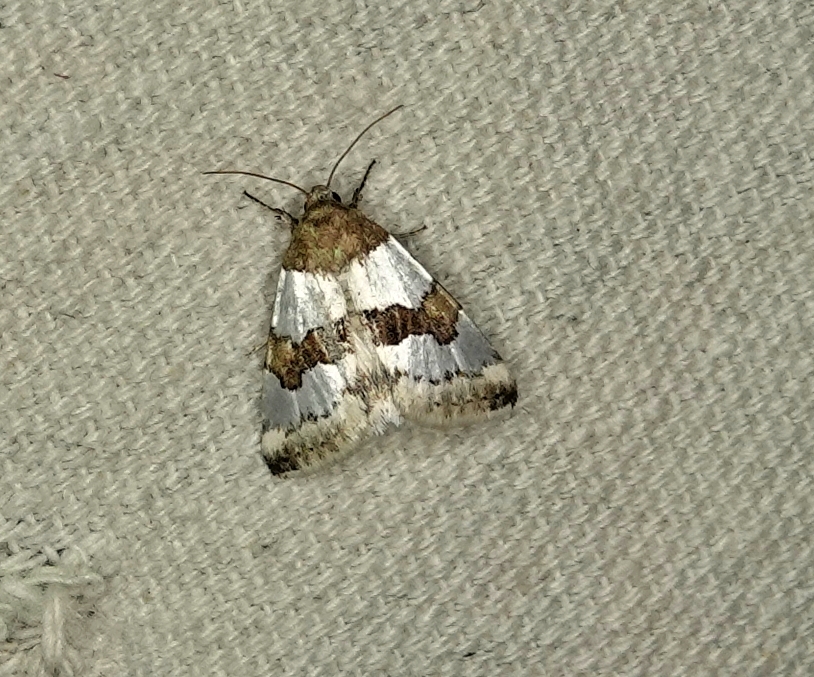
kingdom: Animalia
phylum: Arthropoda
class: Insecta
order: Lepidoptera
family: Noctuidae
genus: Schinia
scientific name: Schinia chryselloides
